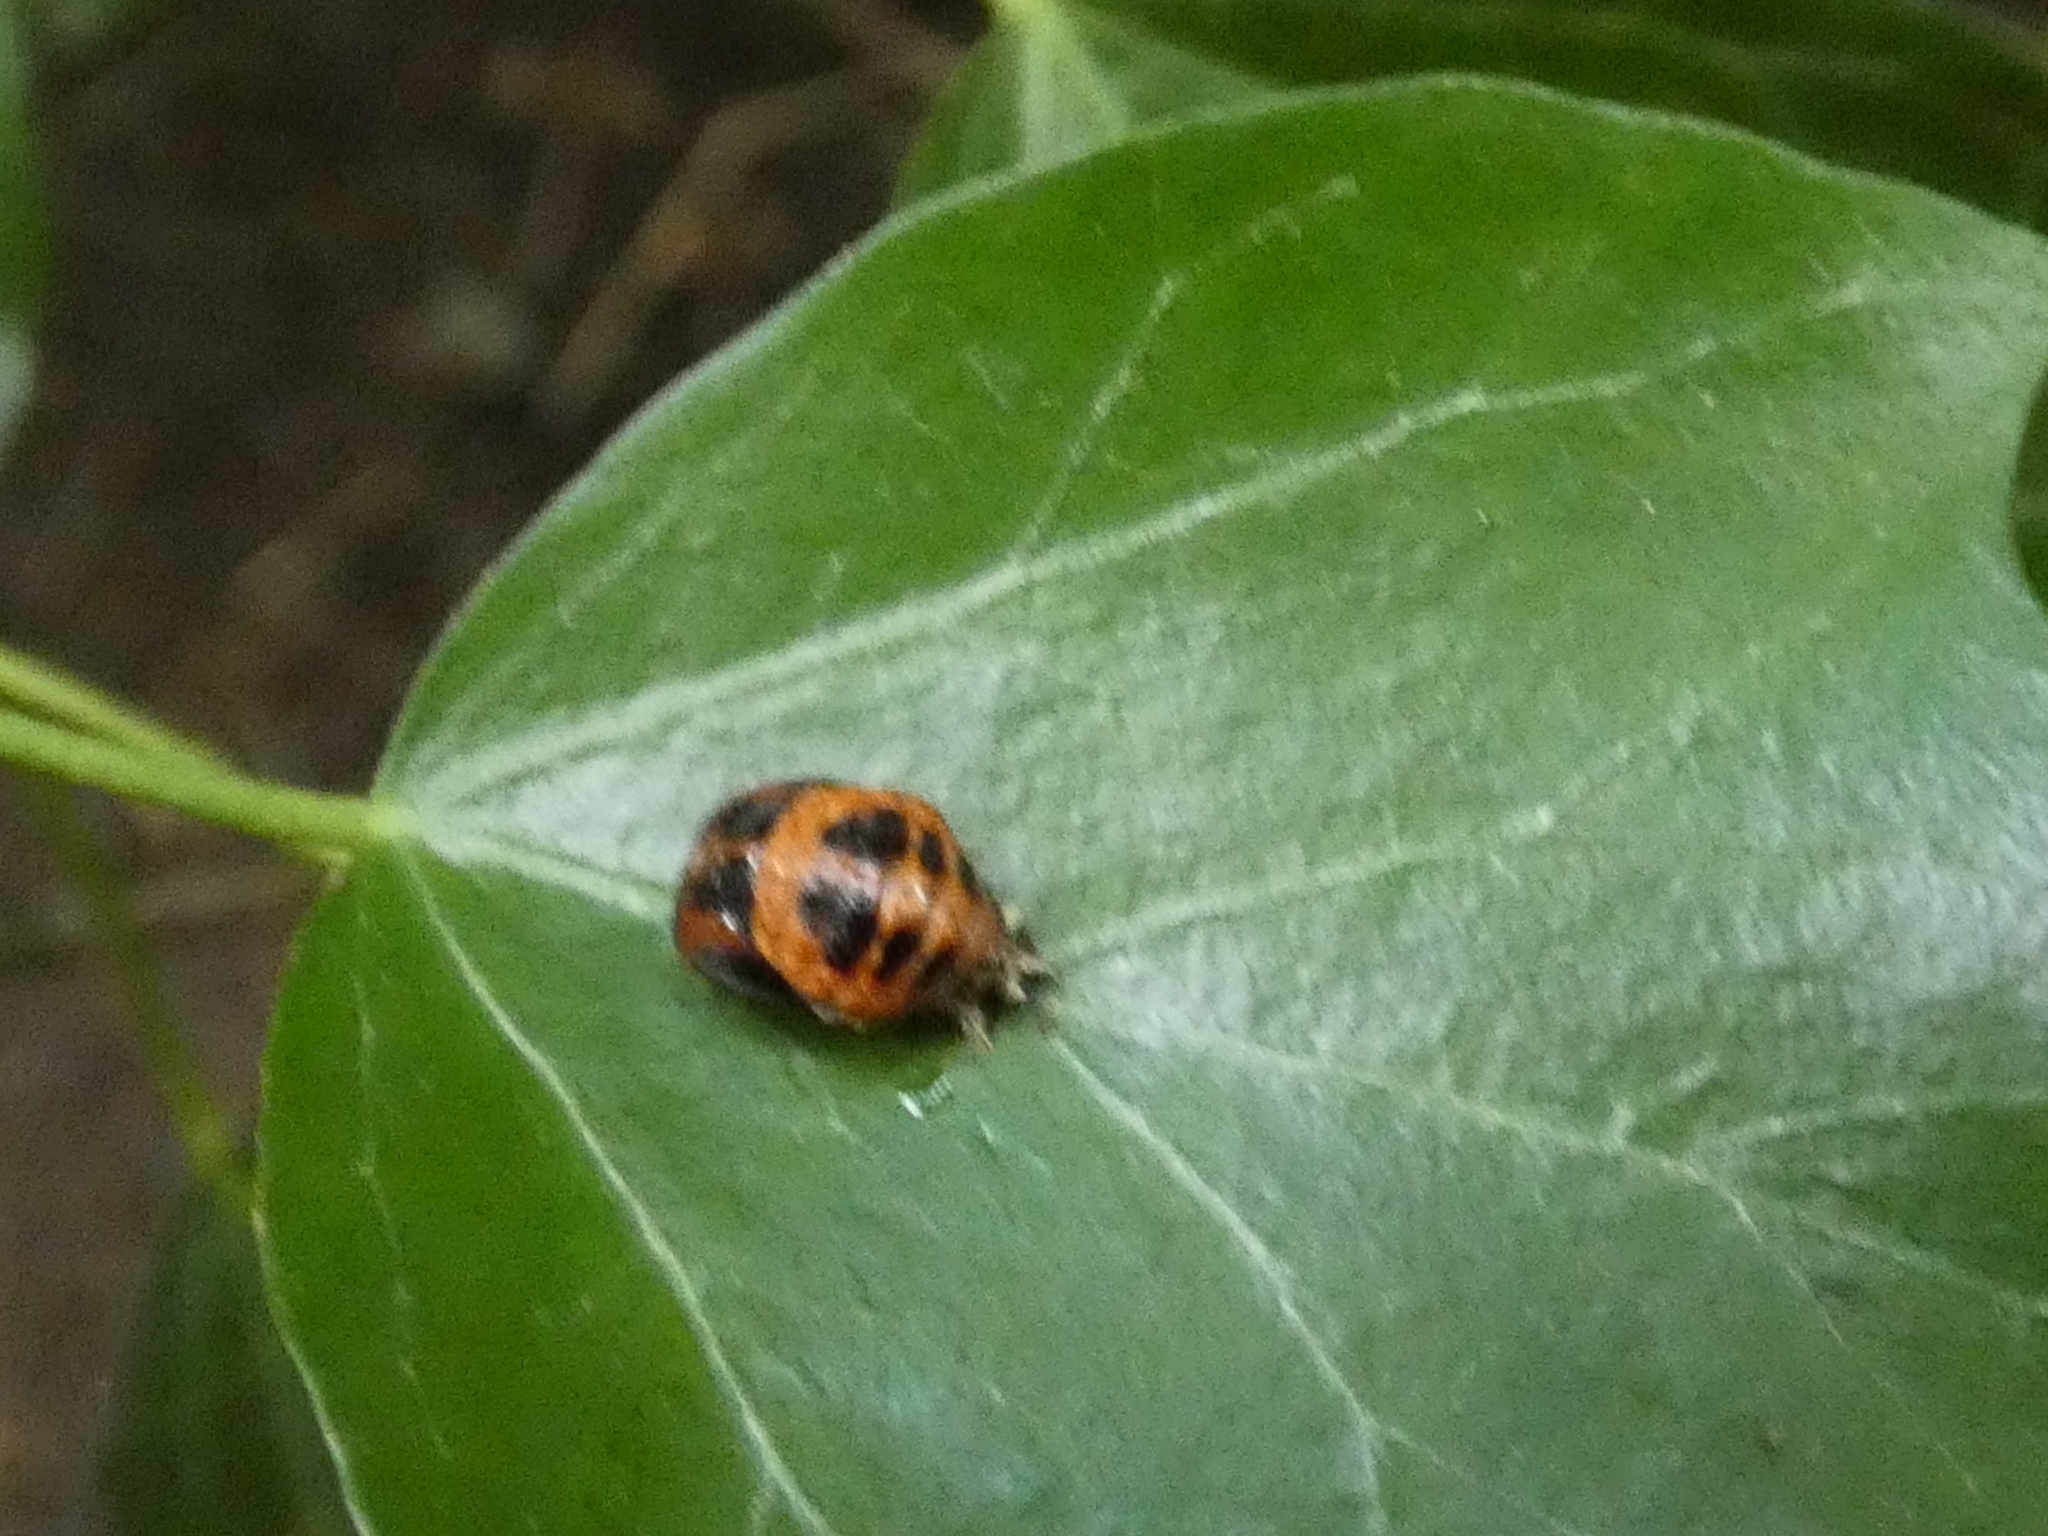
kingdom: Animalia
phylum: Arthropoda
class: Insecta
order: Coleoptera
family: Coccinellidae
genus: Harmonia
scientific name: Harmonia axyridis
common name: Harlequin ladybird
